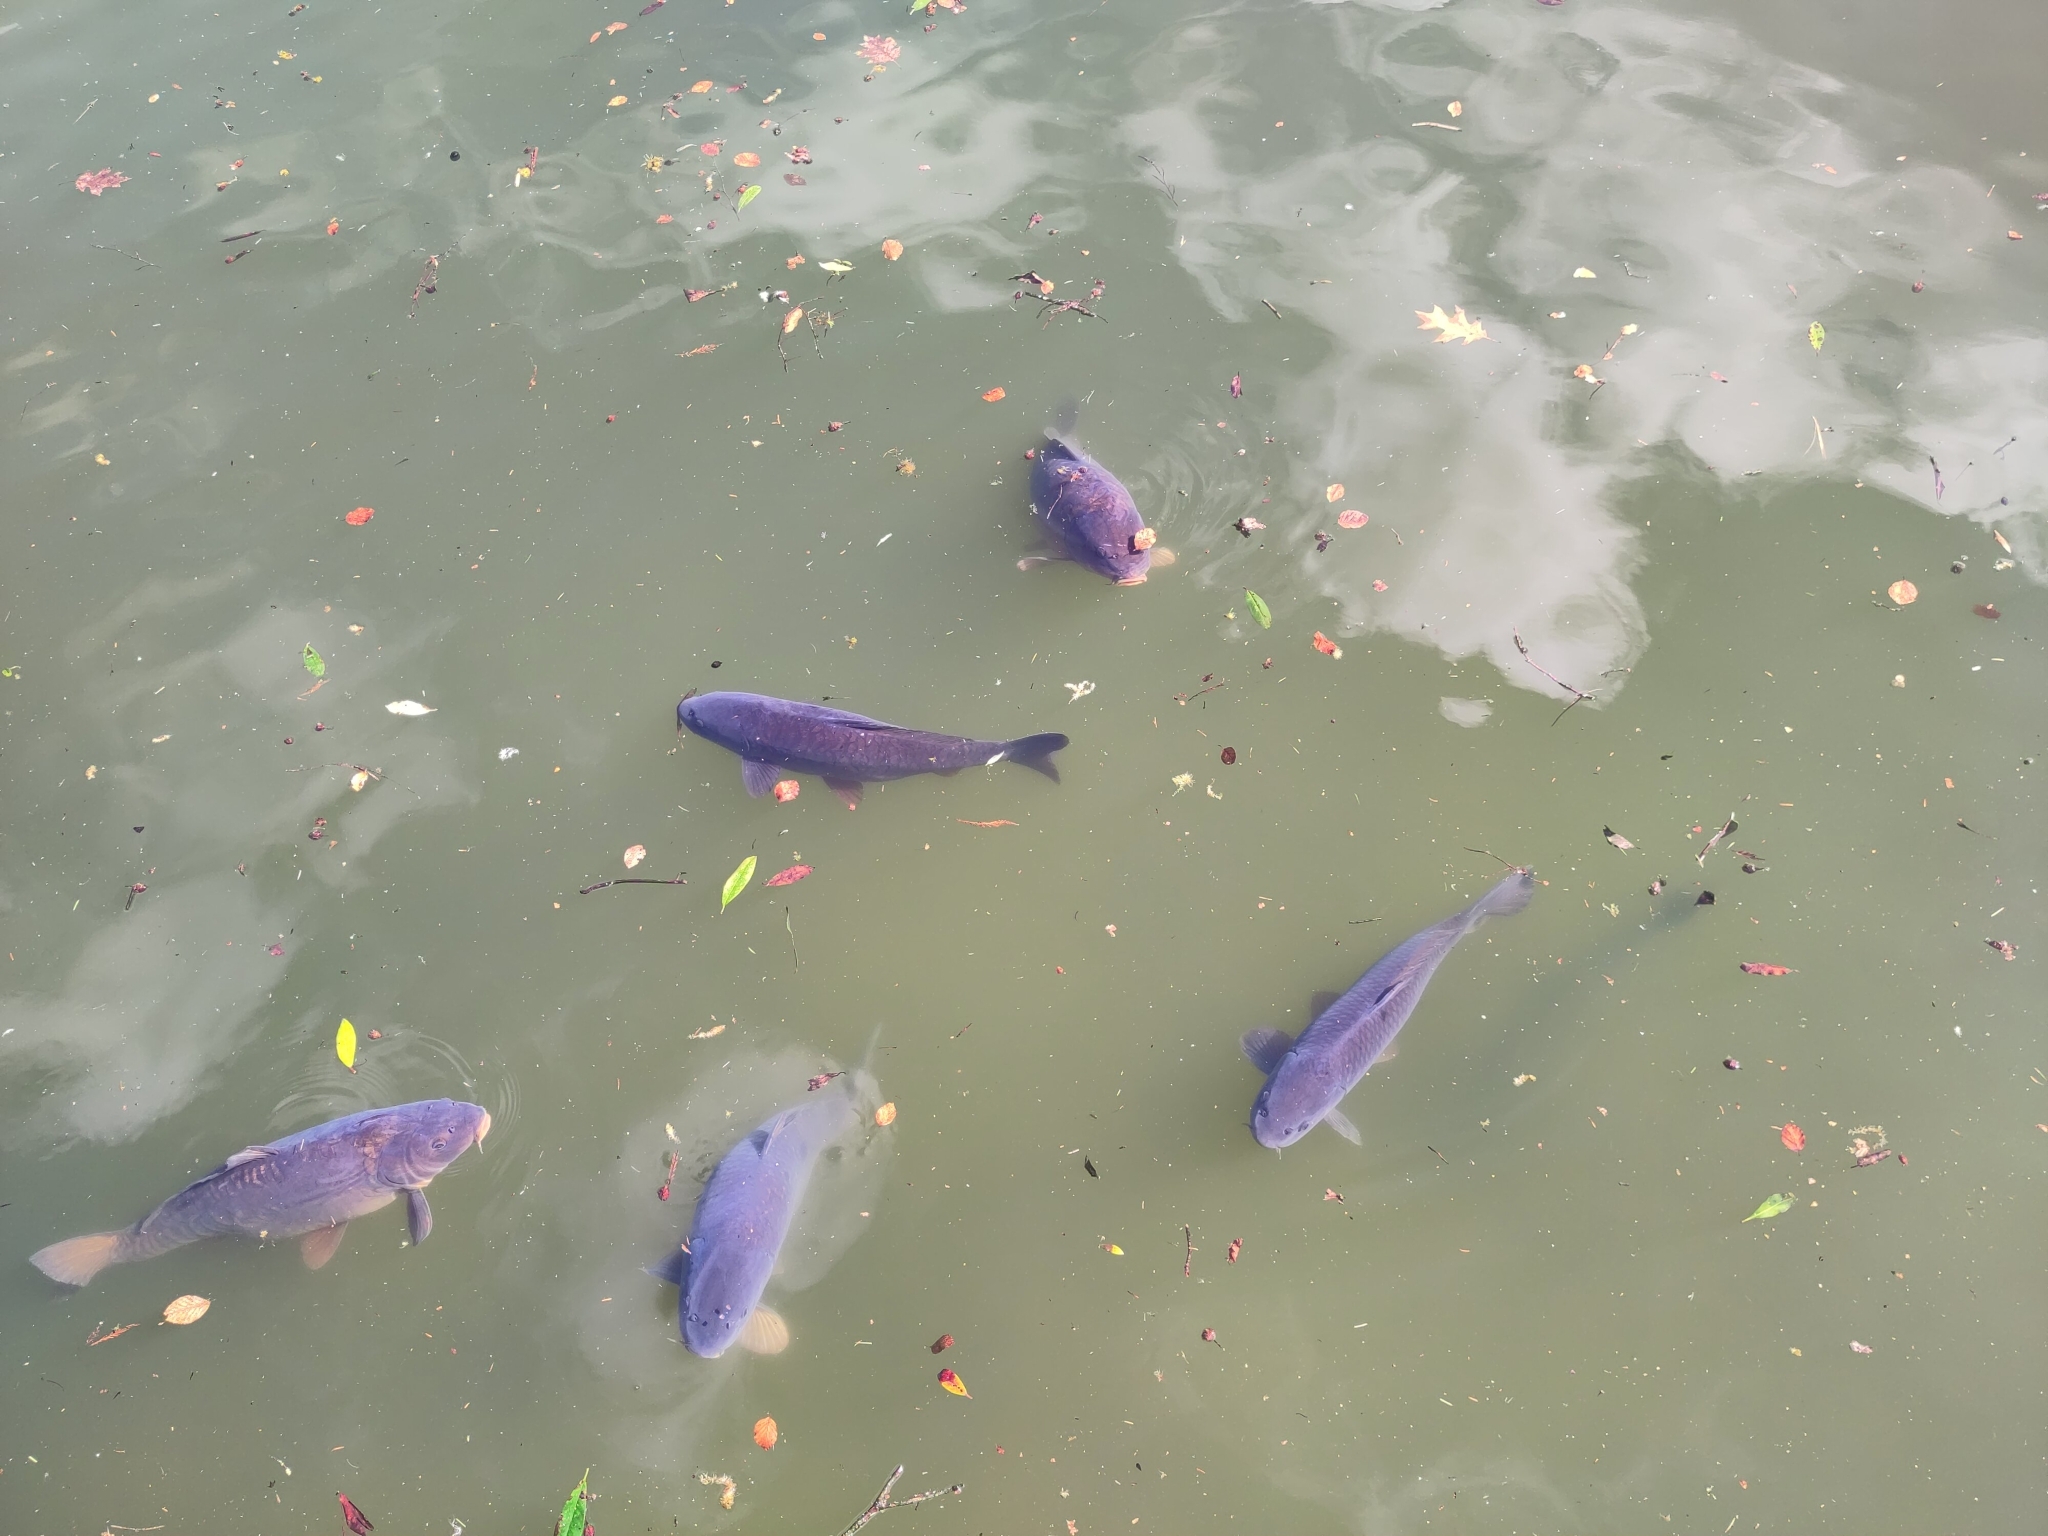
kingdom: Animalia
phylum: Chordata
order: Cypriniformes
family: Cyprinidae
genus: Cyprinus
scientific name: Cyprinus carpio
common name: Common carp
